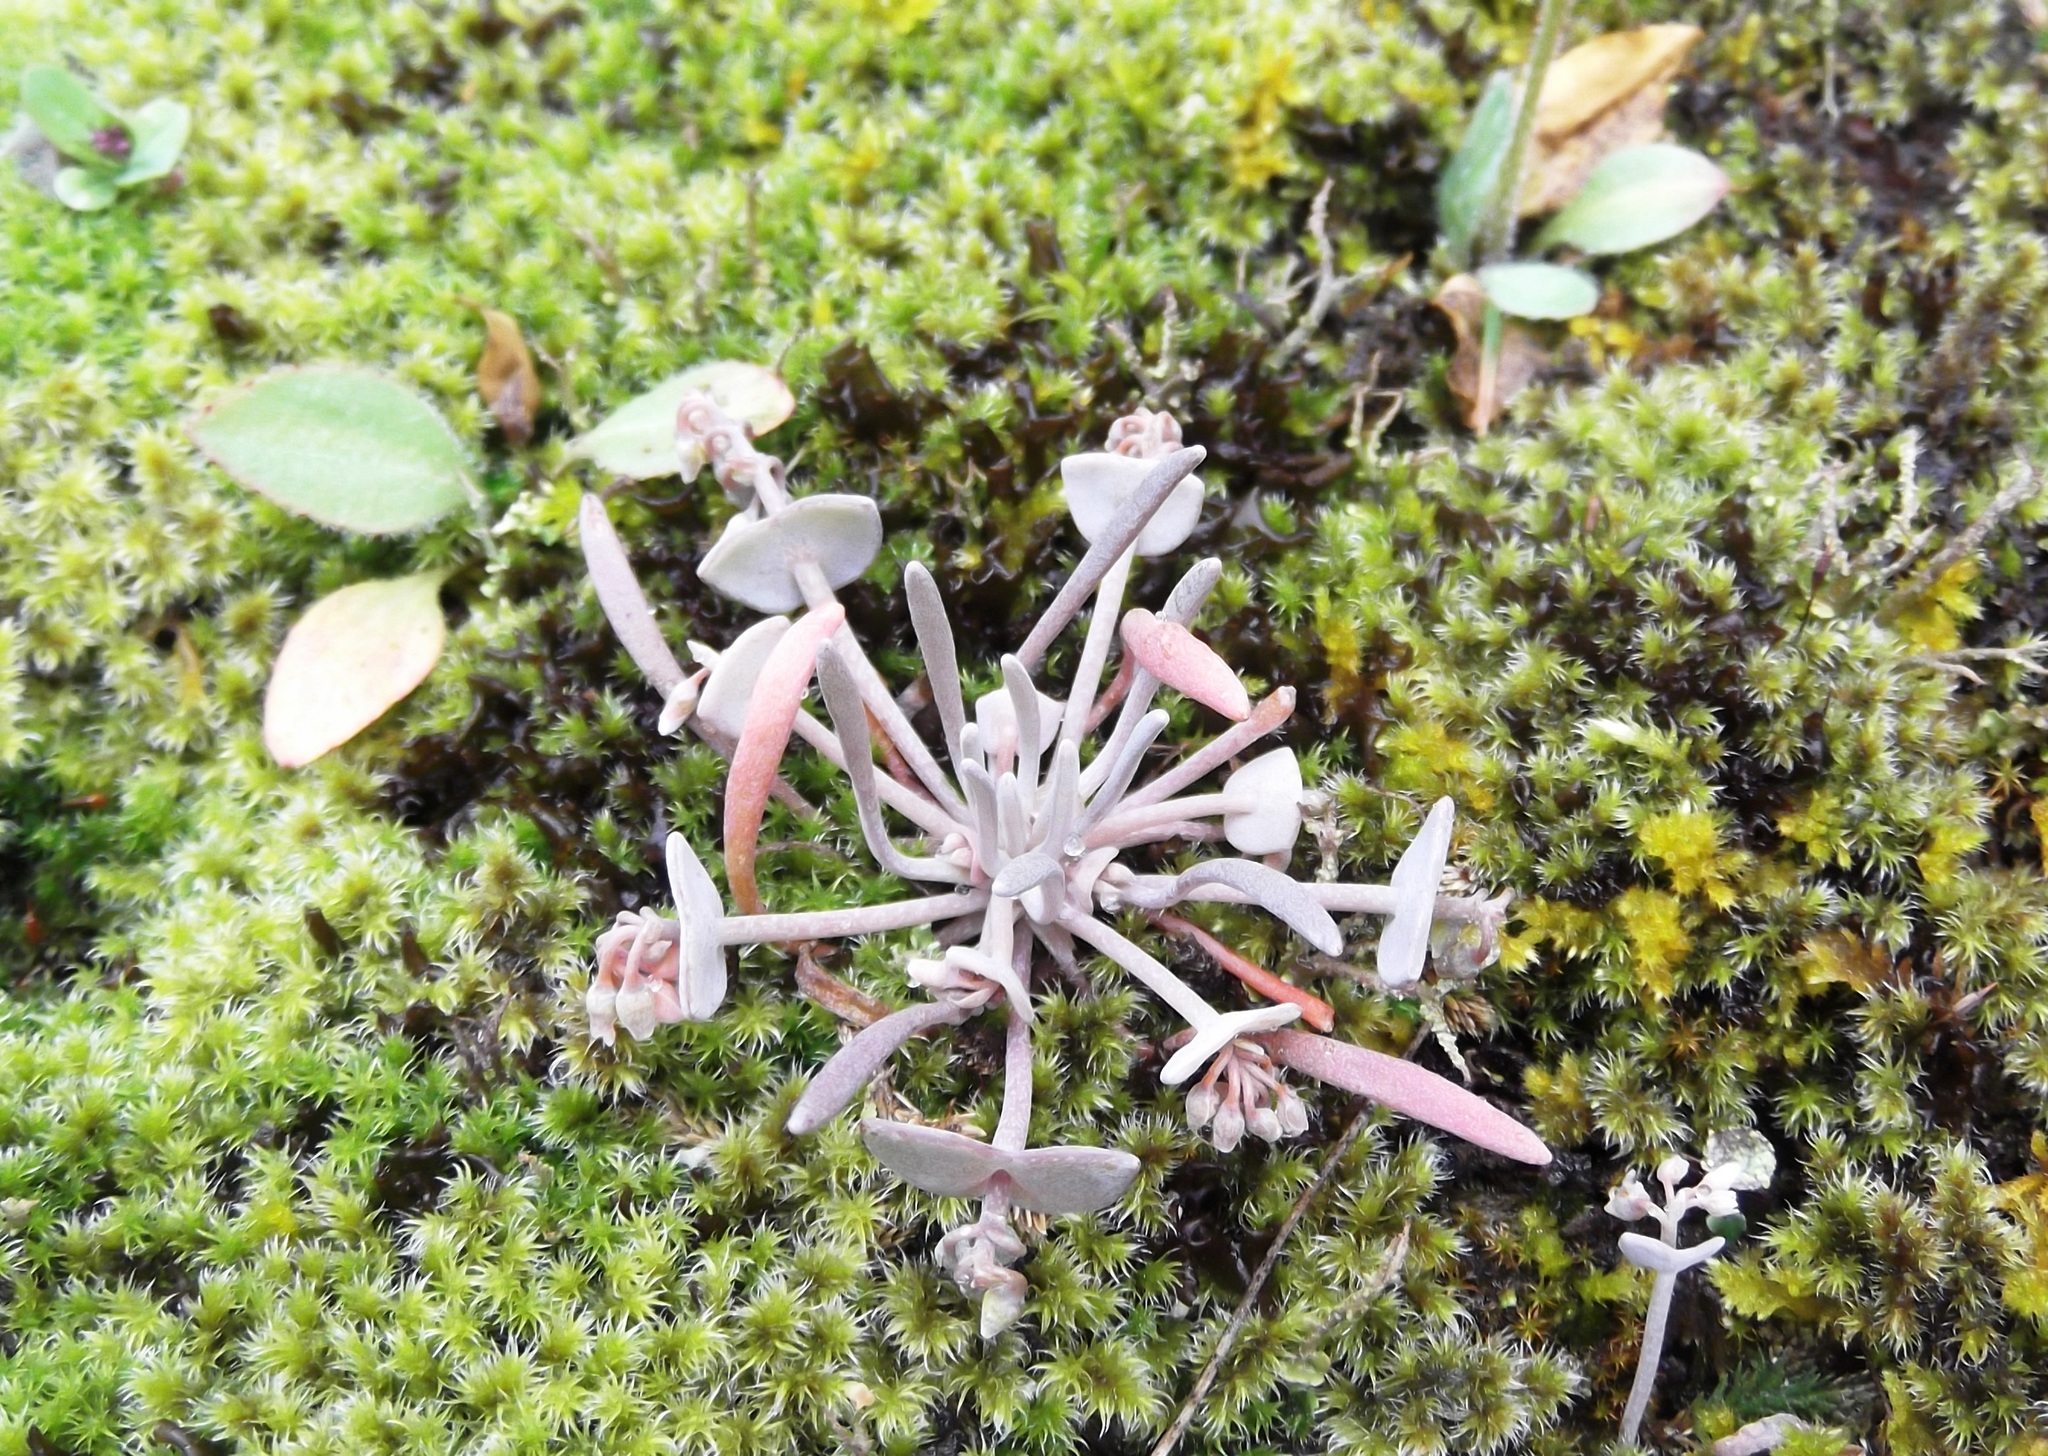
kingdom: Plantae
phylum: Tracheophyta
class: Magnoliopsida
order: Caryophyllales
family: Montiaceae
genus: Claytonia
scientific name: Claytonia exigua
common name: Pale spring beauty
